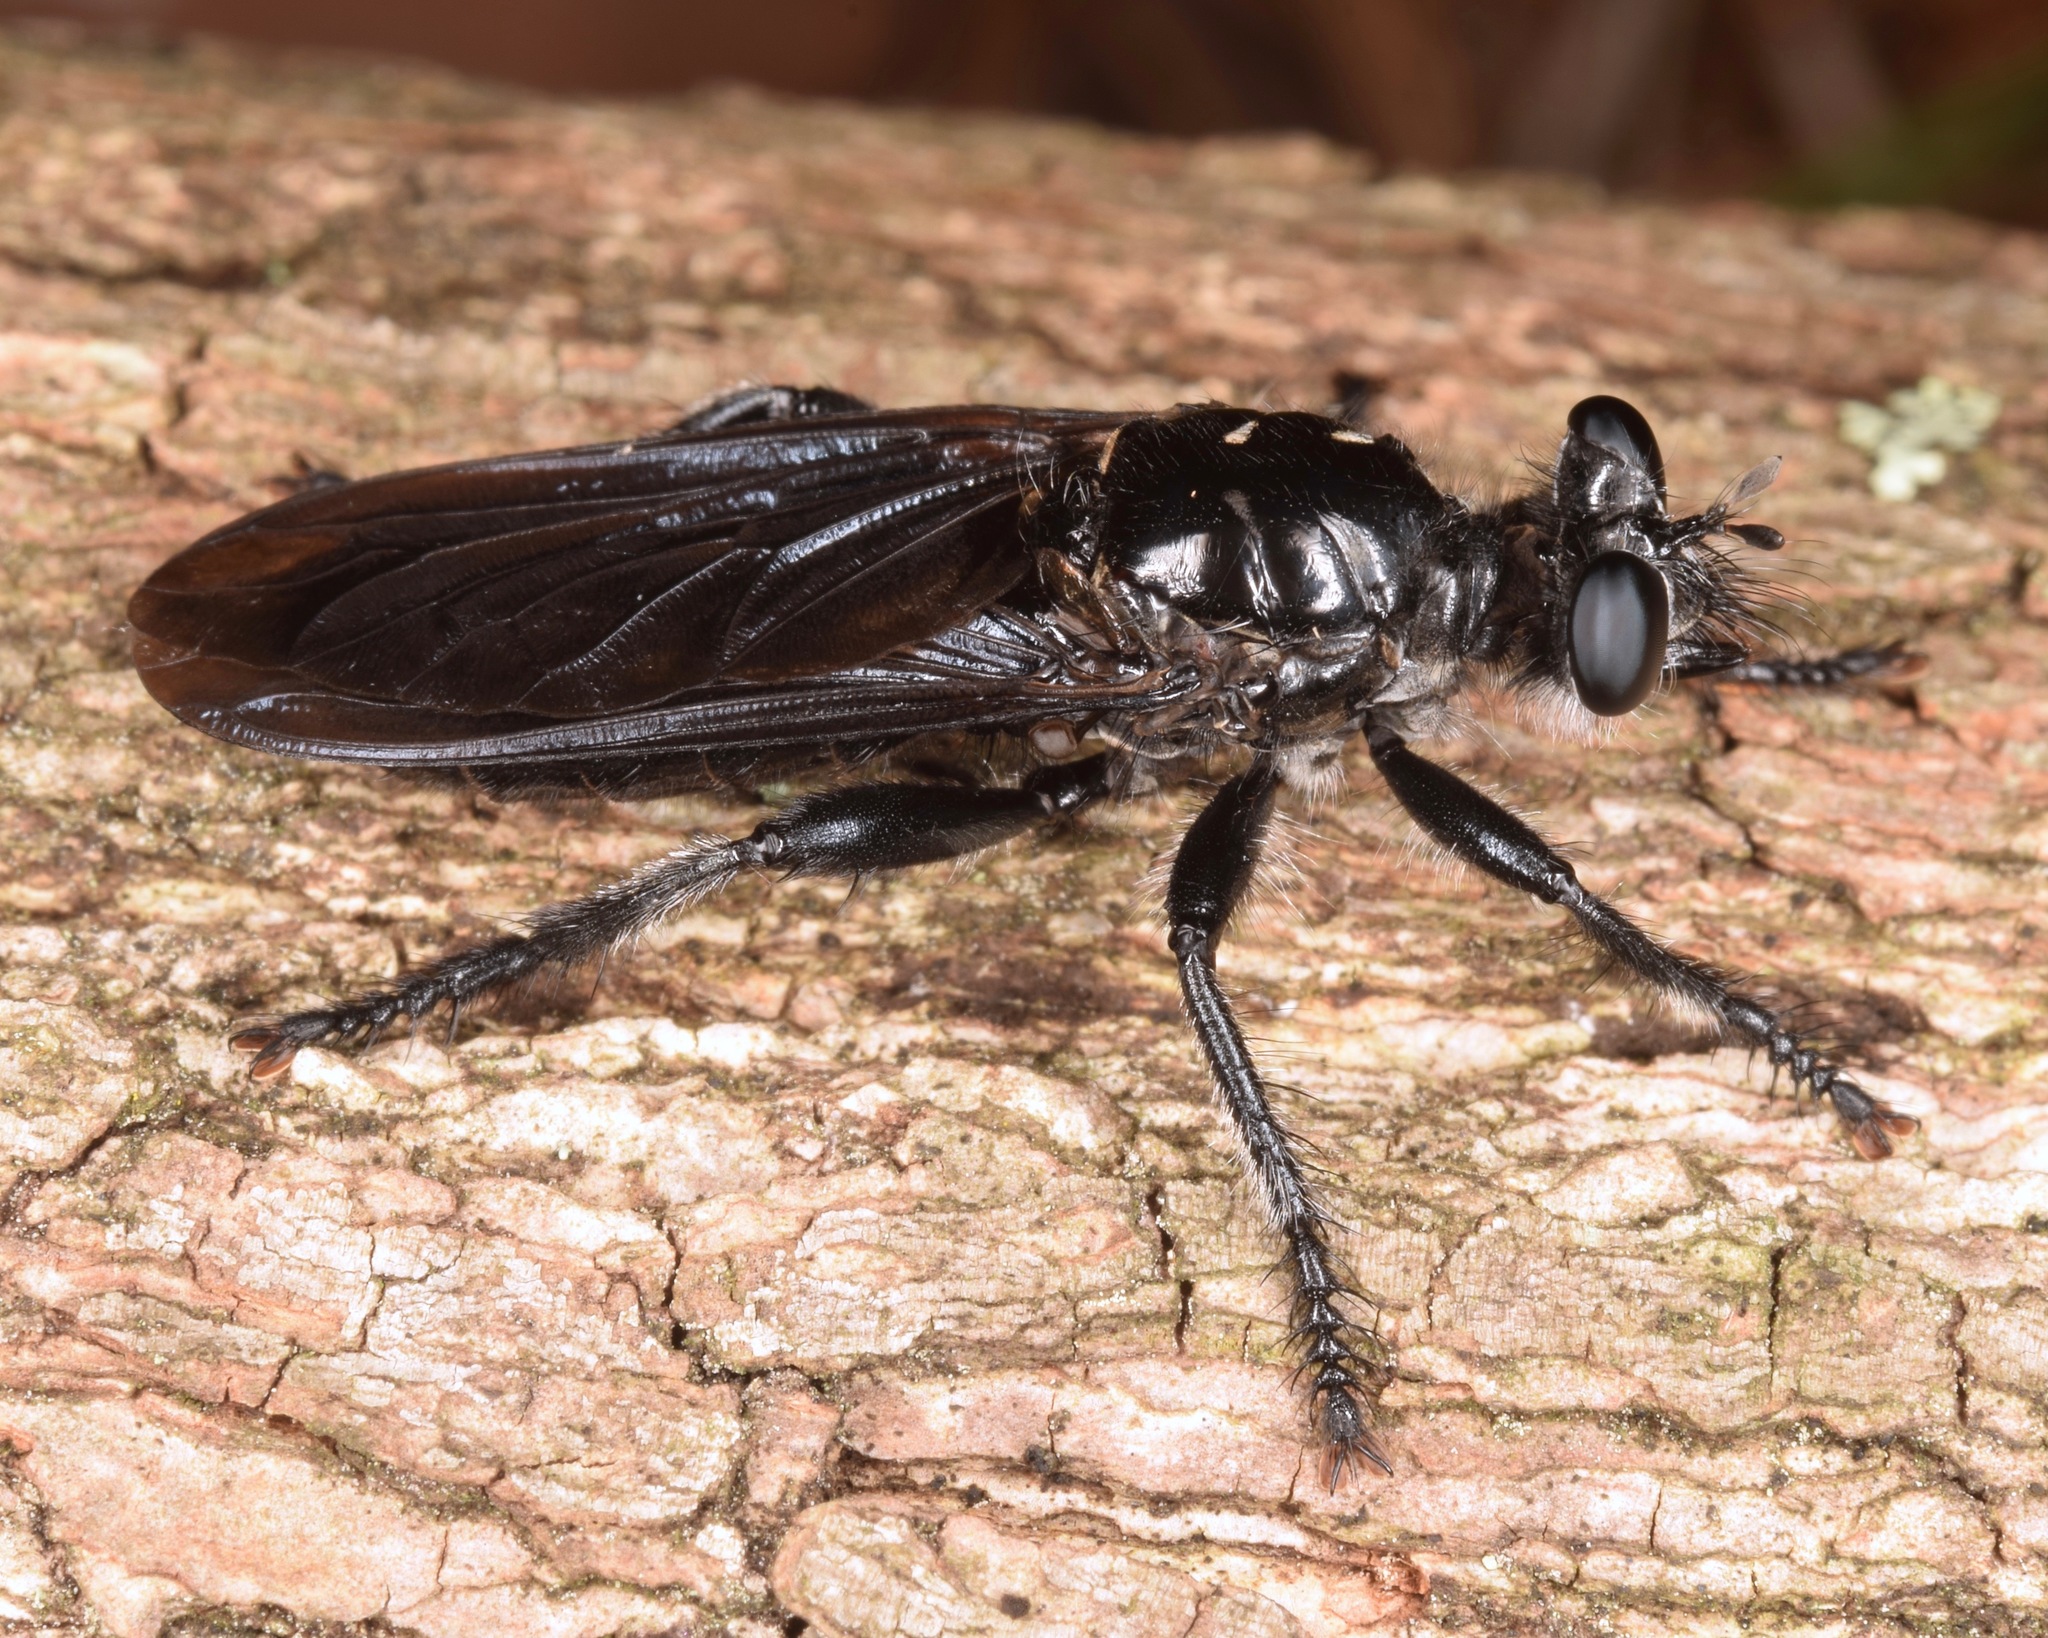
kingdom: Animalia
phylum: Arthropoda
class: Insecta
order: Diptera
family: Asilidae
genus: Pogonosoma
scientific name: Pogonosoma dorsatum
